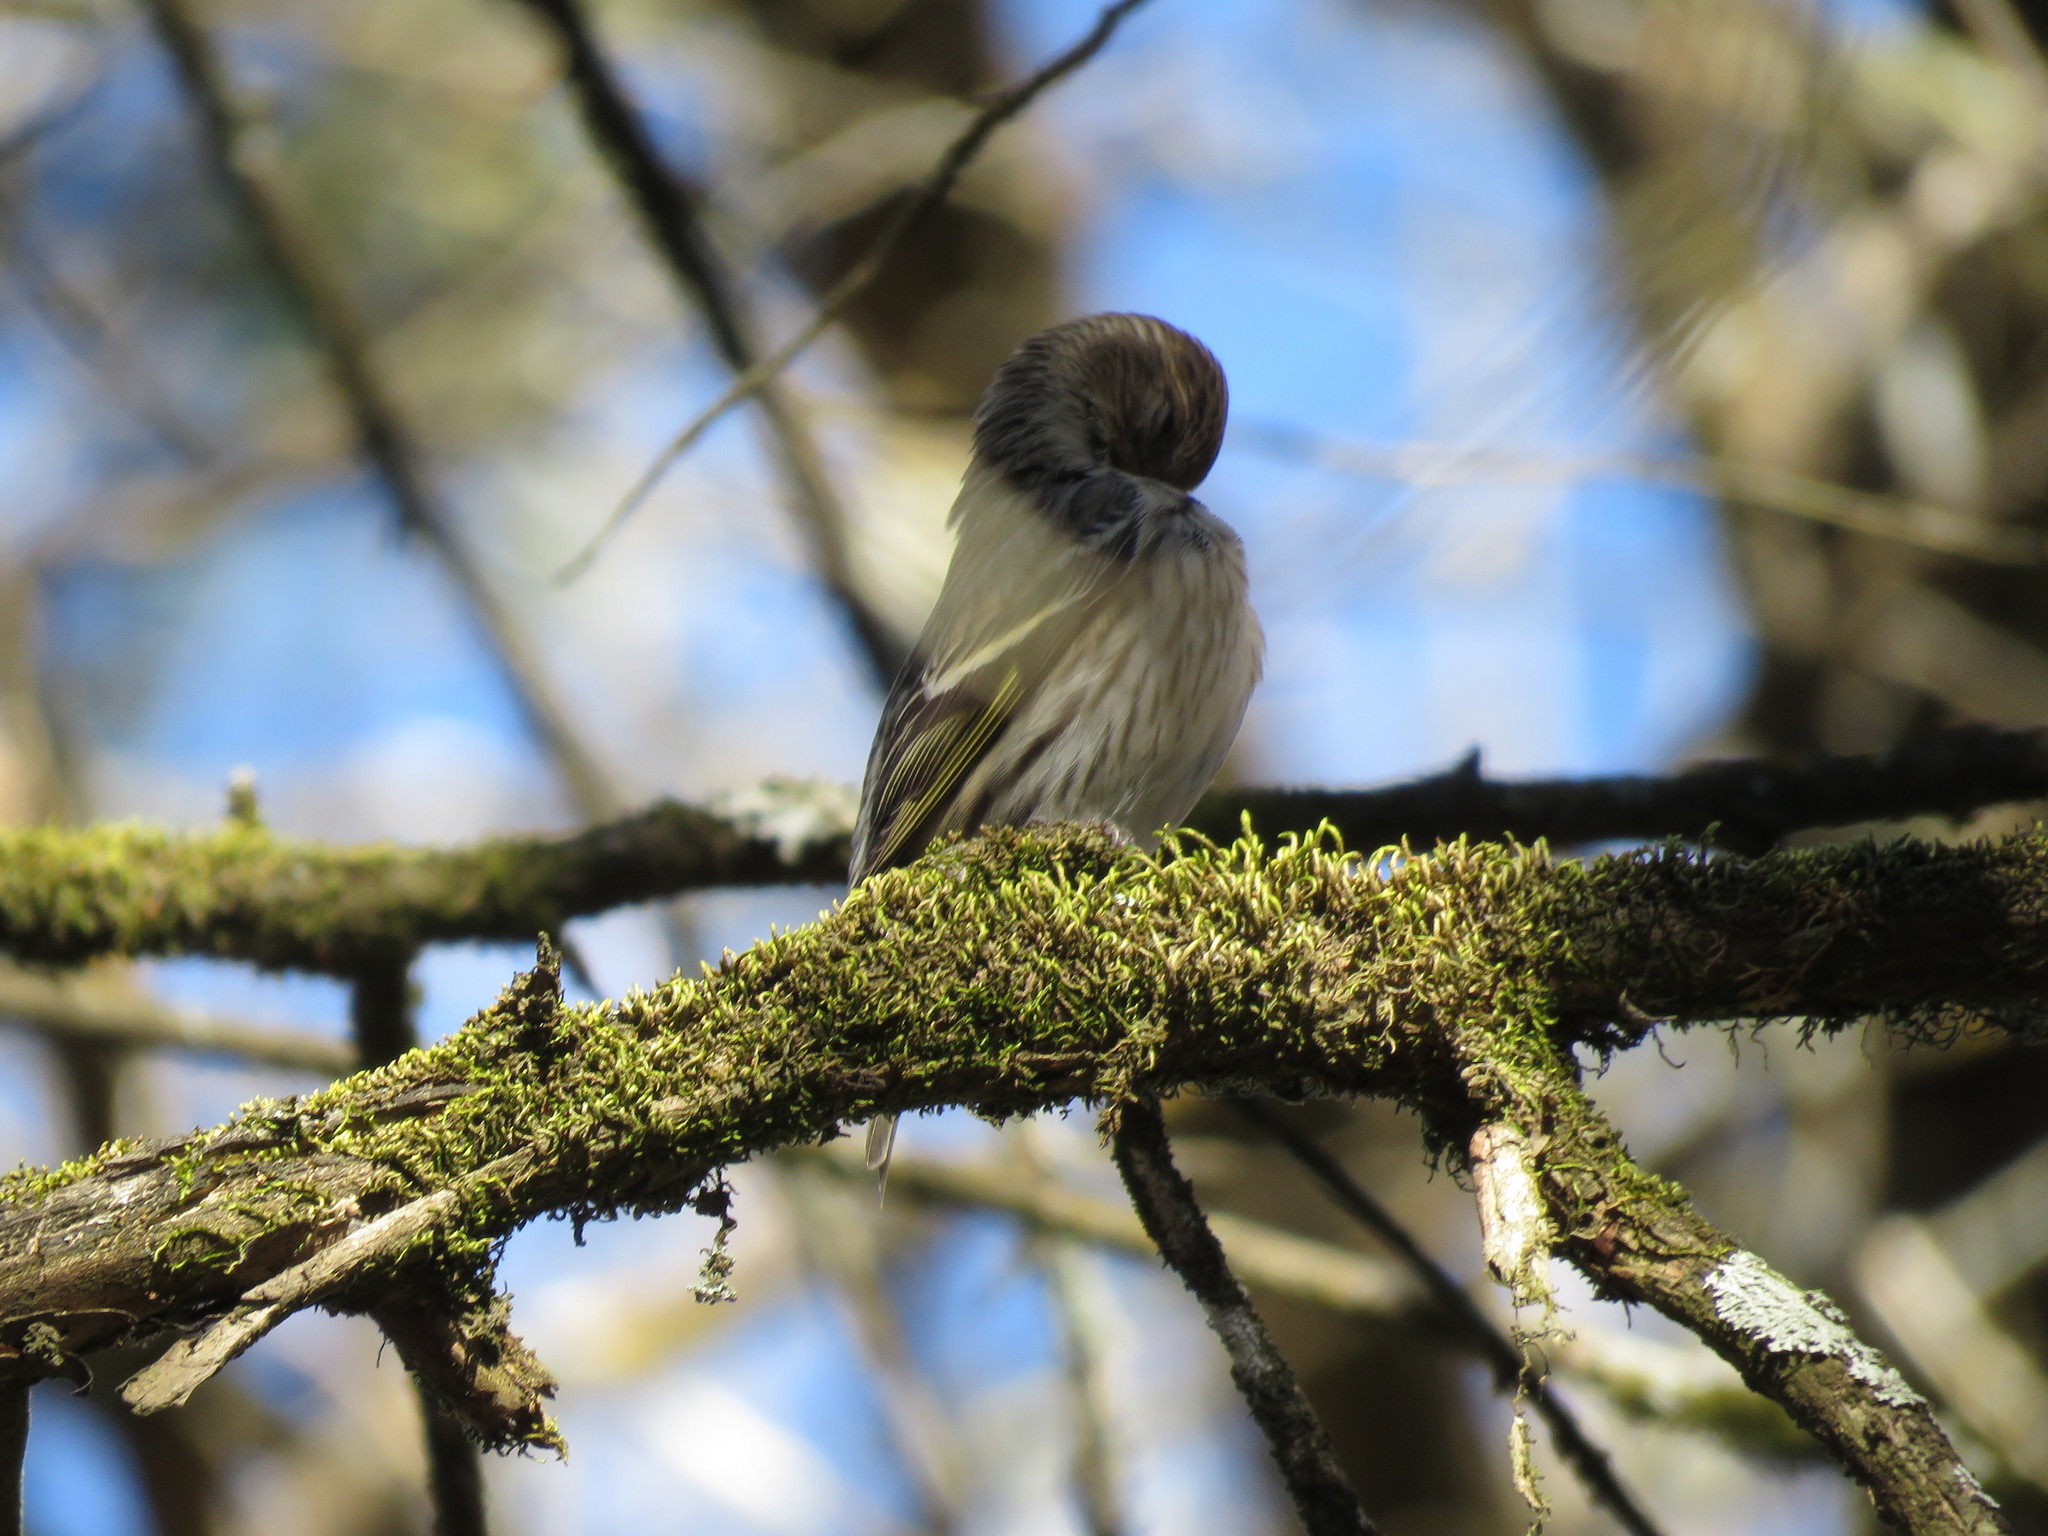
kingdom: Animalia
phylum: Chordata
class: Aves
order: Passeriformes
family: Fringillidae
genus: Spinus
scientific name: Spinus pinus
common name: Pine siskin
